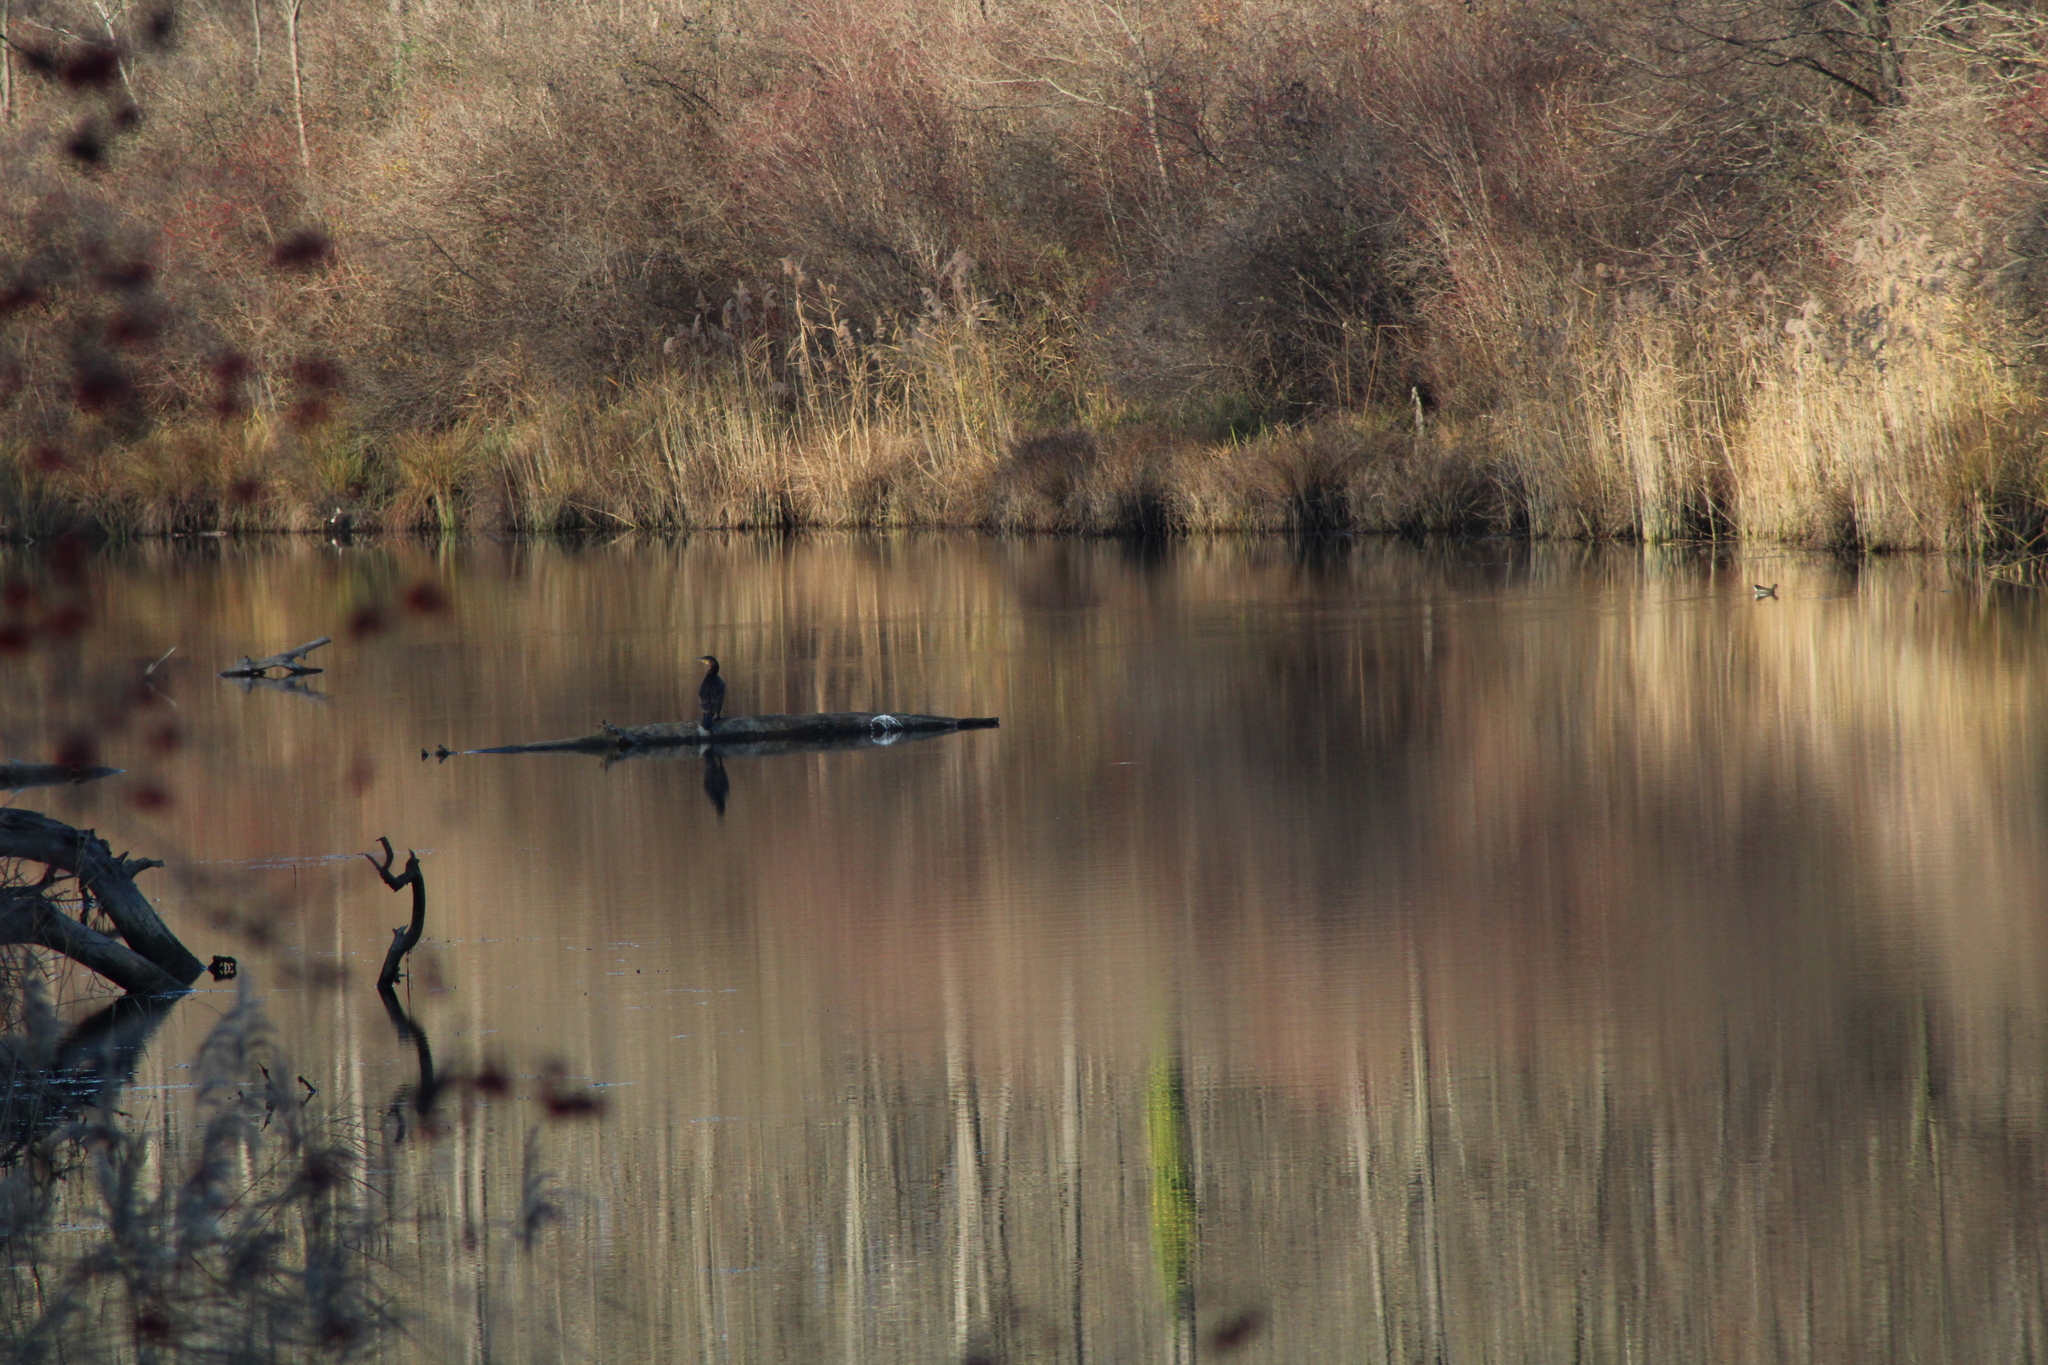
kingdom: Animalia
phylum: Chordata
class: Aves
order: Suliformes
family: Phalacrocoracidae
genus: Phalacrocorax
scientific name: Phalacrocorax carbo
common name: Great cormorant
